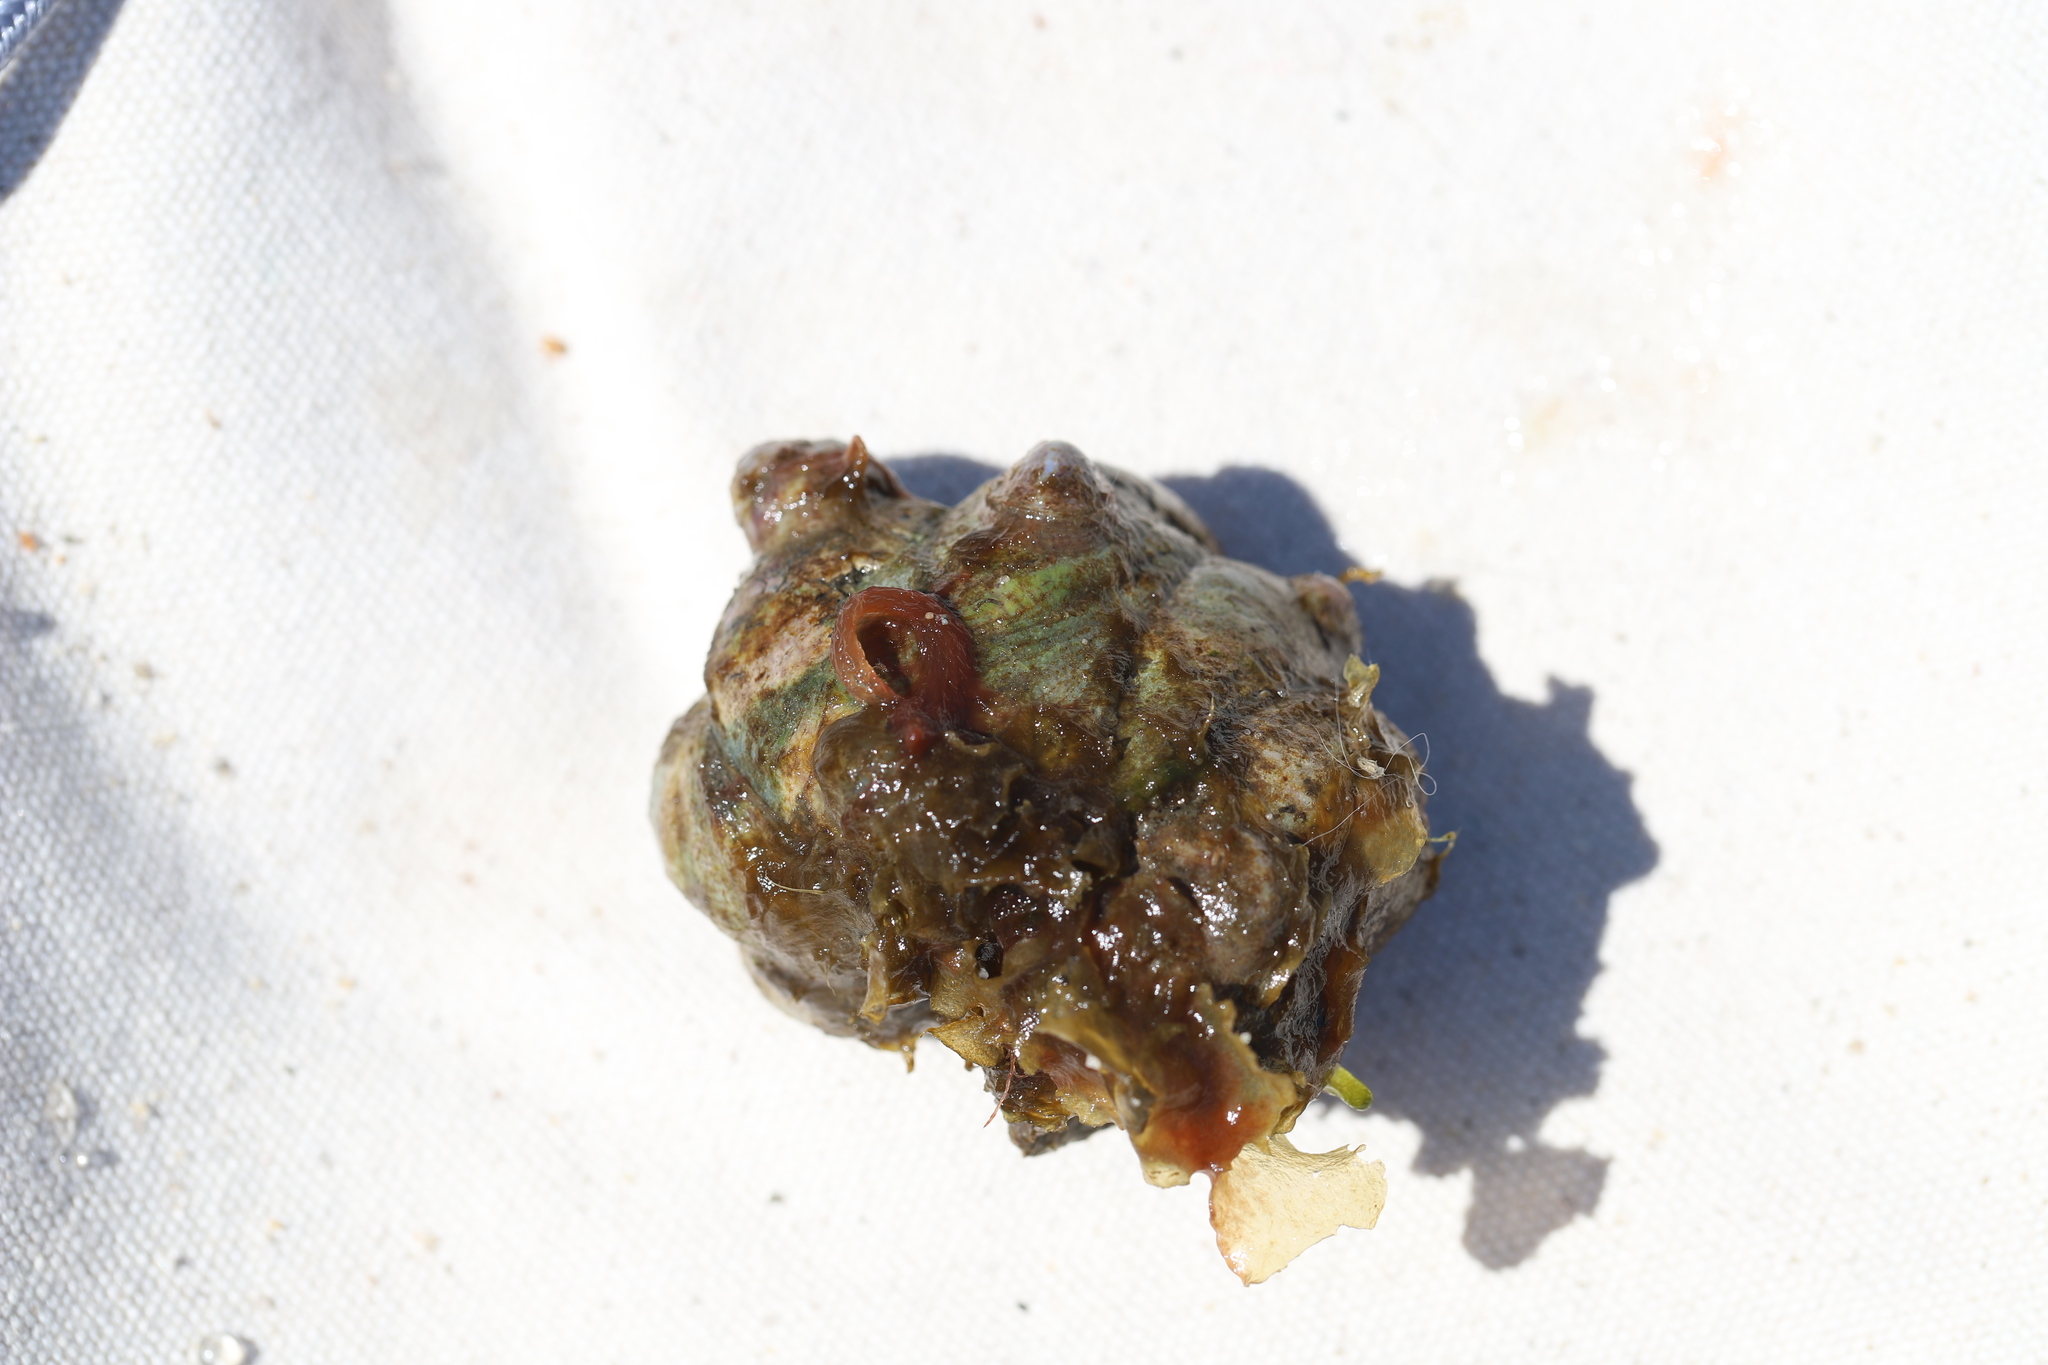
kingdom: Animalia
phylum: Mollusca
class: Gastropoda
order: Littorinimorpha
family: Calyptraeidae
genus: Crepidula
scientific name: Crepidula fornicata
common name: Slipper limpet
